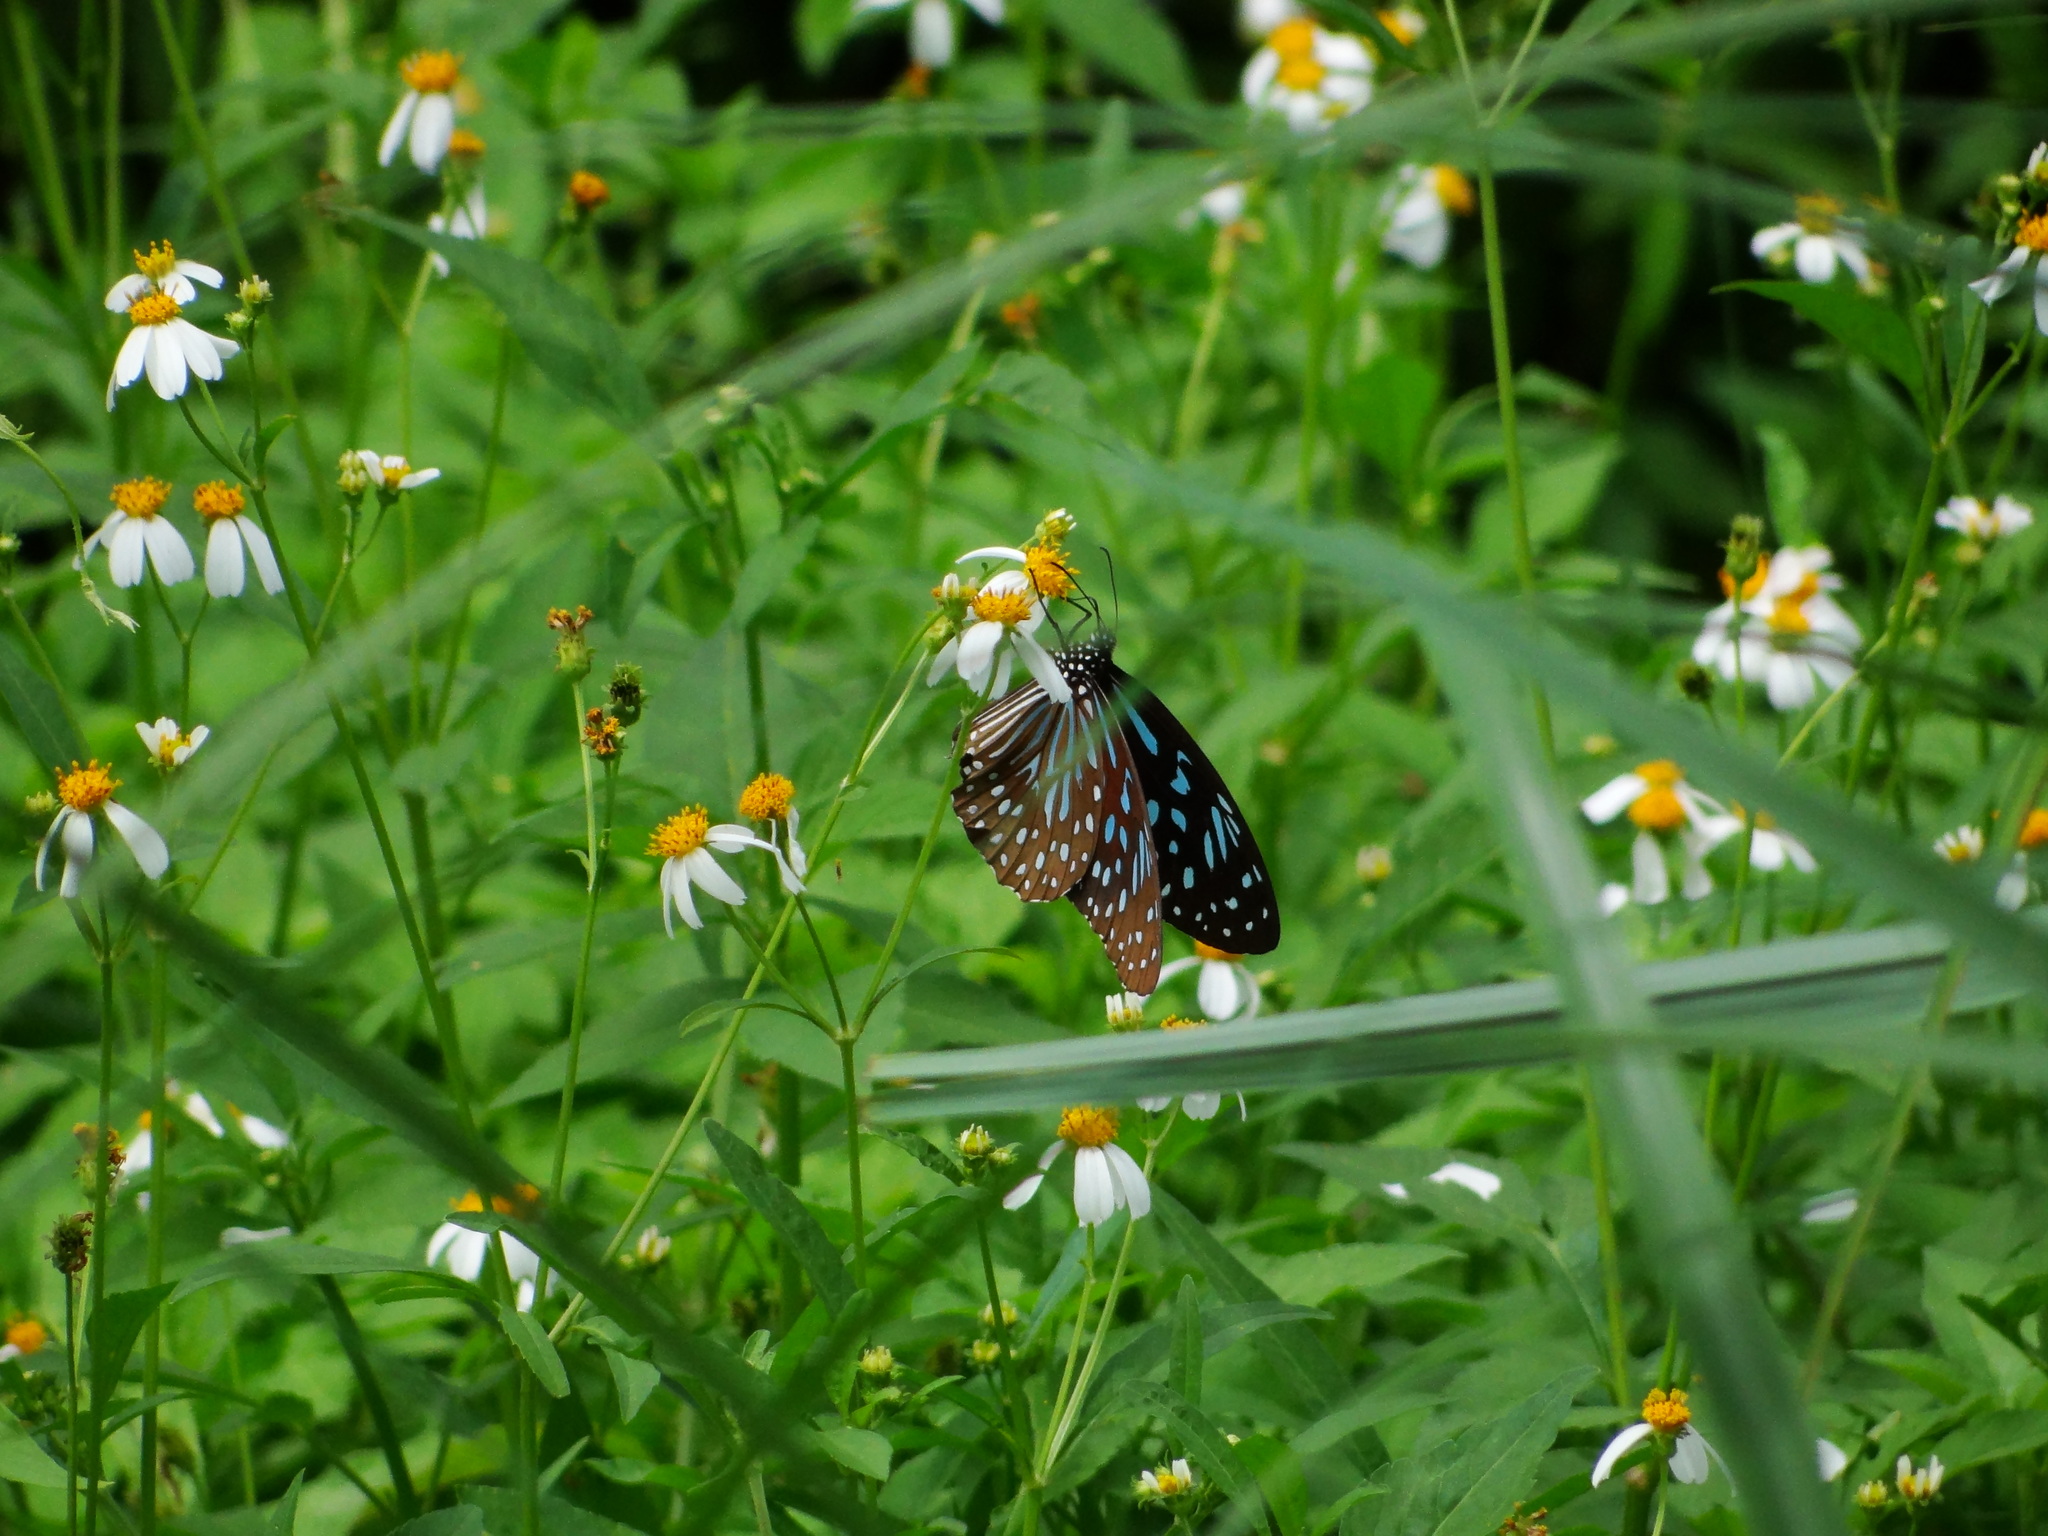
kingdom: Animalia
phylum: Arthropoda
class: Insecta
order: Lepidoptera
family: Nymphalidae
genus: Tirumala
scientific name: Tirumala septentrionis
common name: Dark blue tiger butterfly
